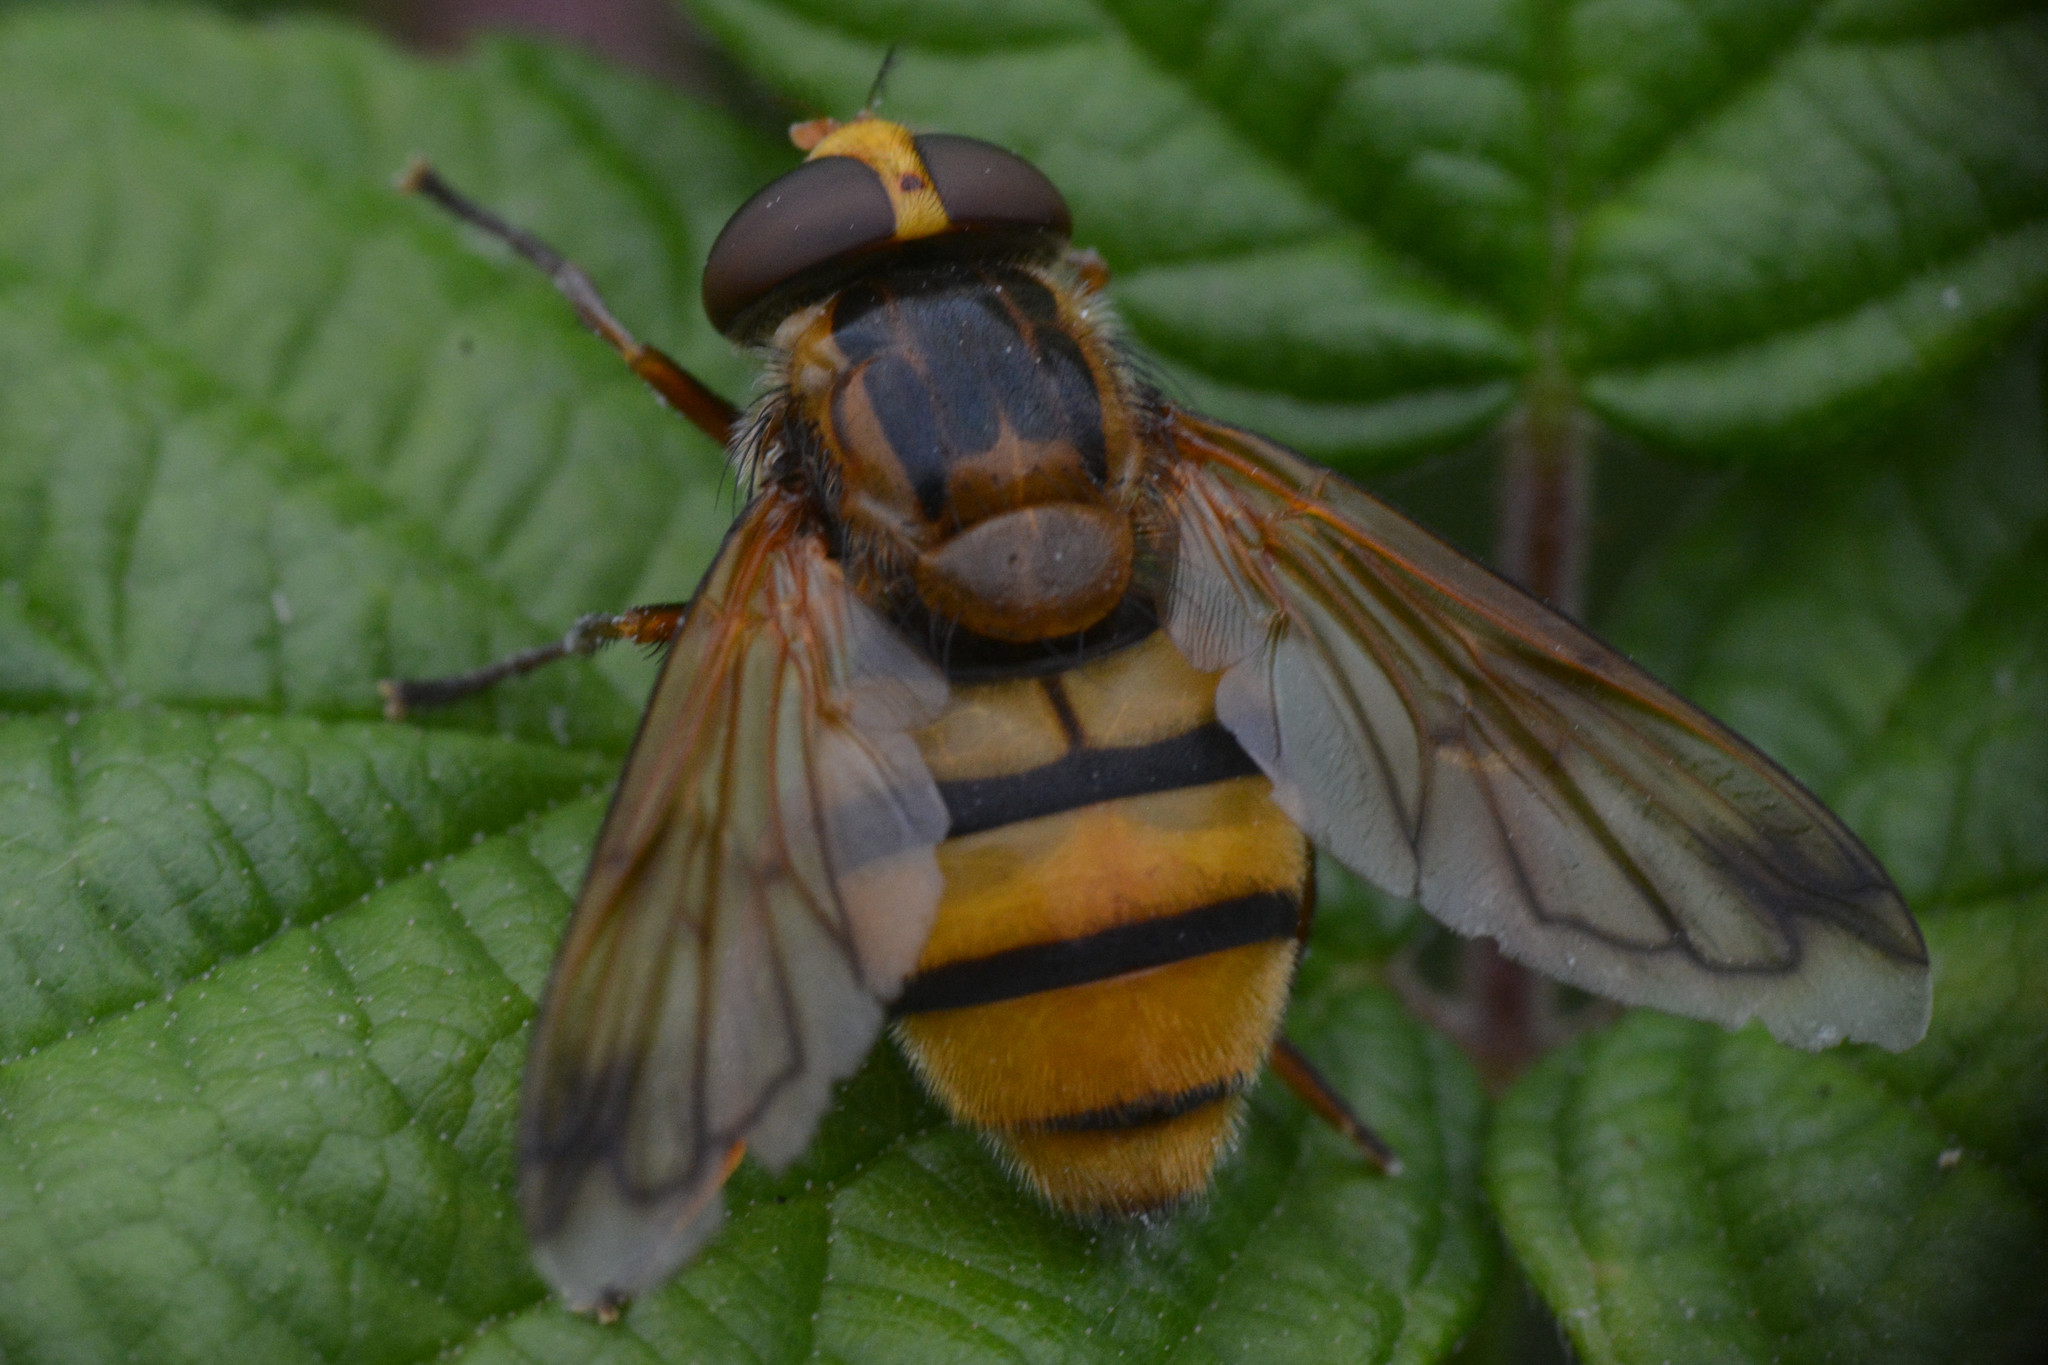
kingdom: Animalia
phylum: Arthropoda
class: Insecta
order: Diptera
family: Syrphidae
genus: Volucella
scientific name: Volucella inanis
